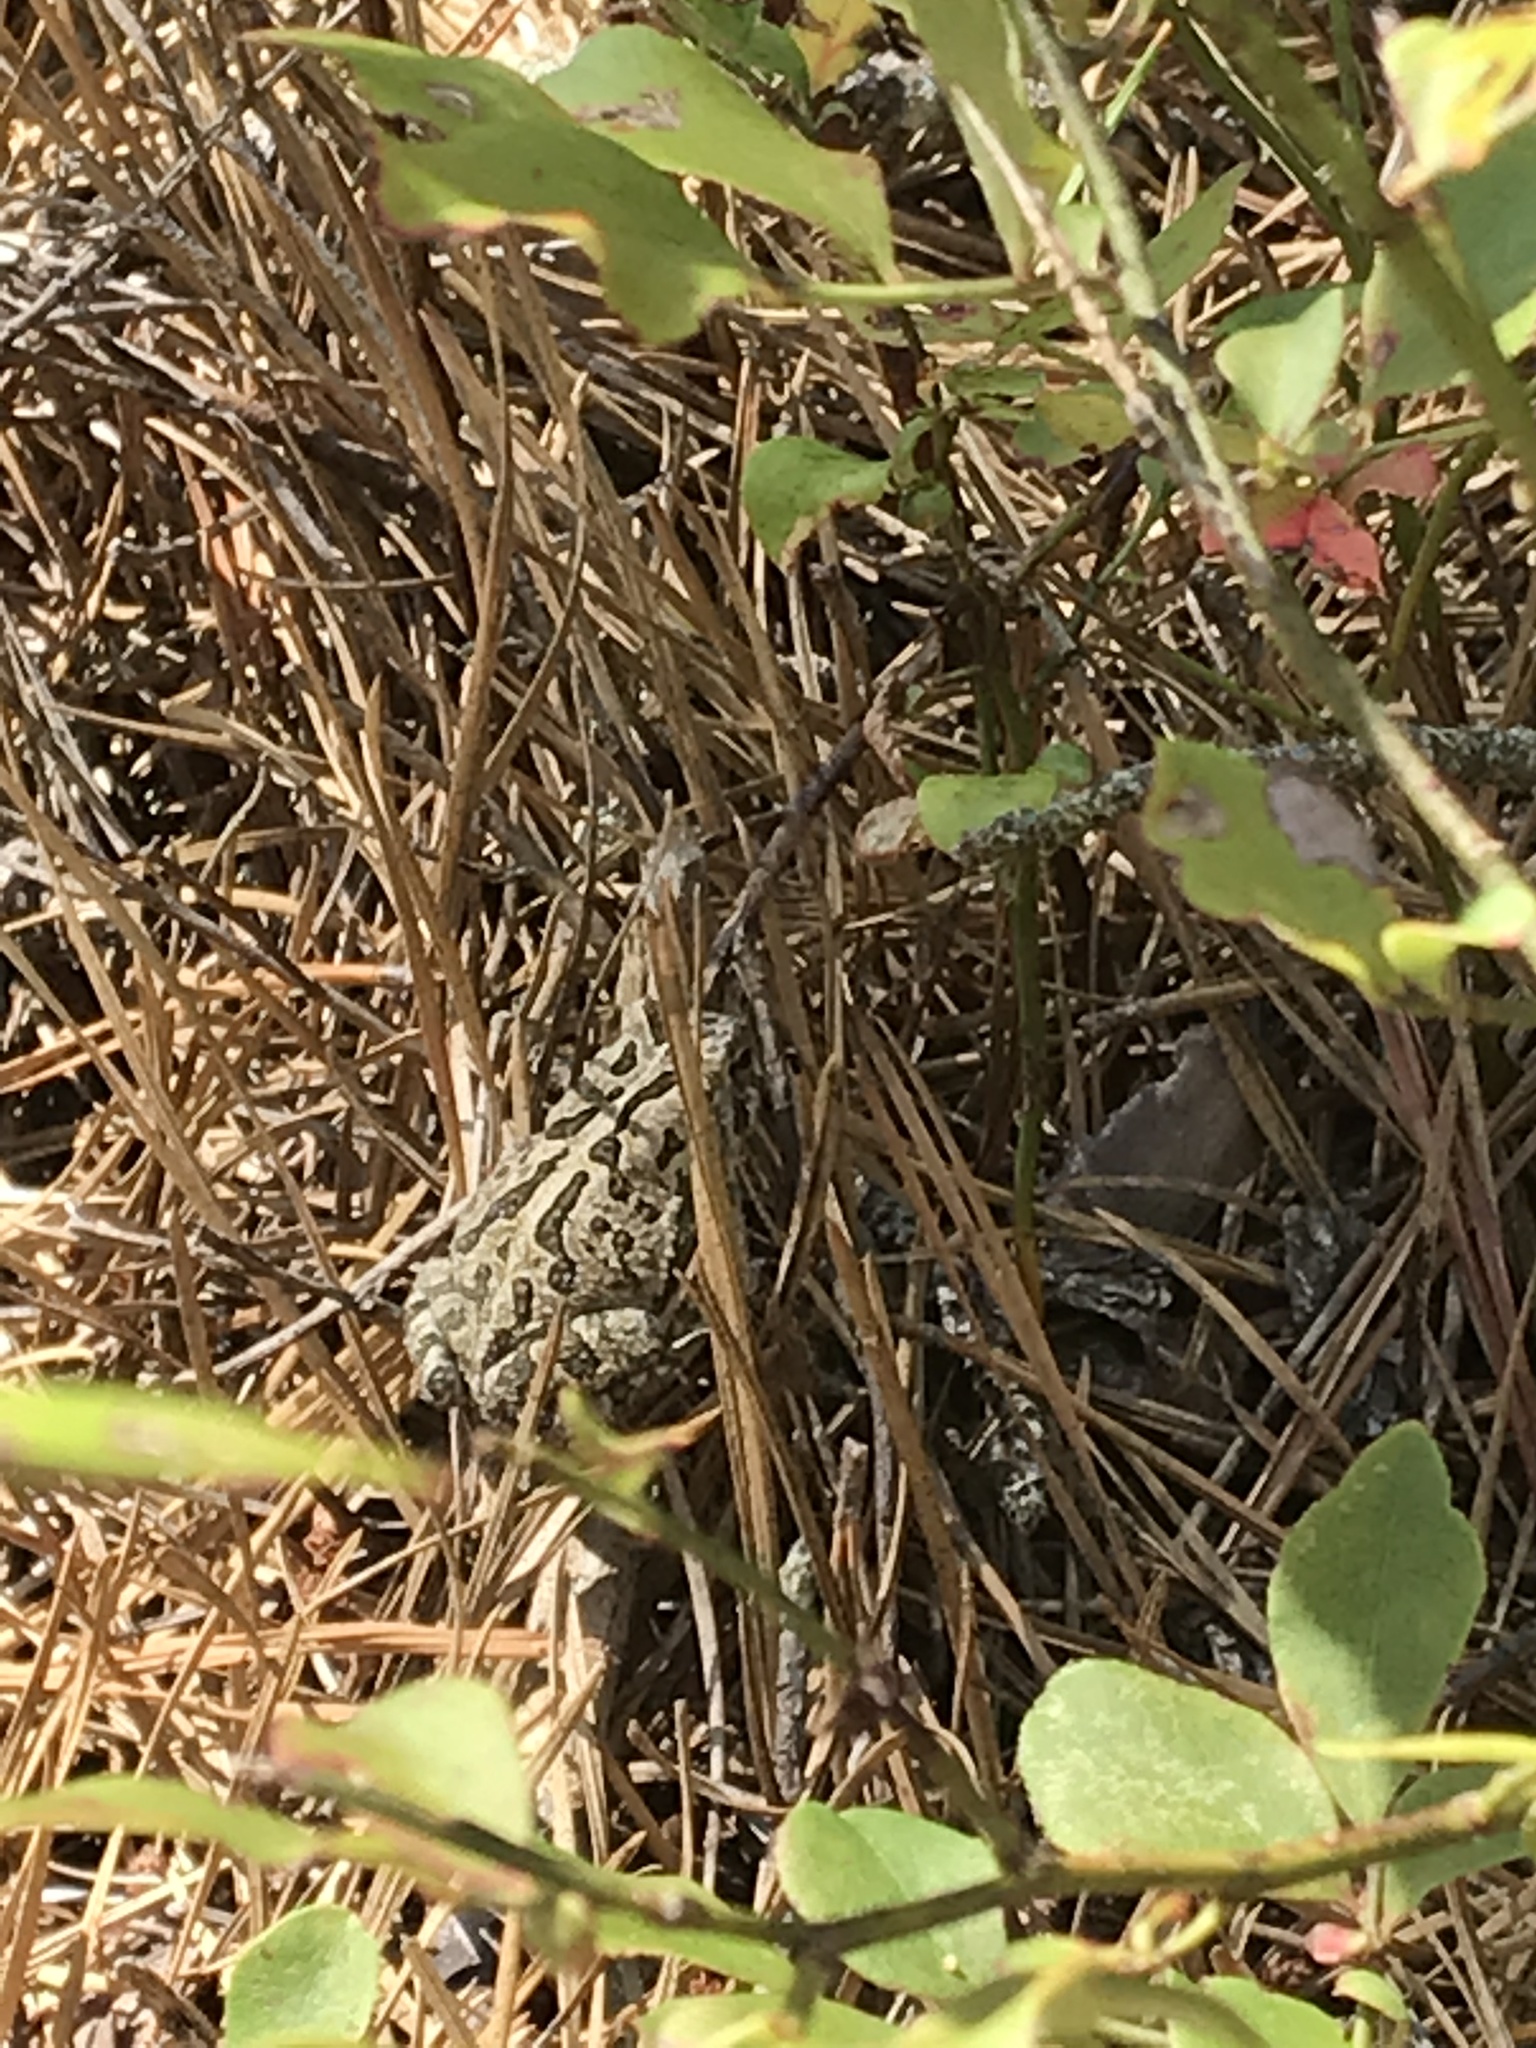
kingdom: Animalia
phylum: Chordata
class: Amphibia
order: Anura
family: Bufonidae
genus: Anaxyrus
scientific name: Anaxyrus fowleri
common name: Fowler's toad
